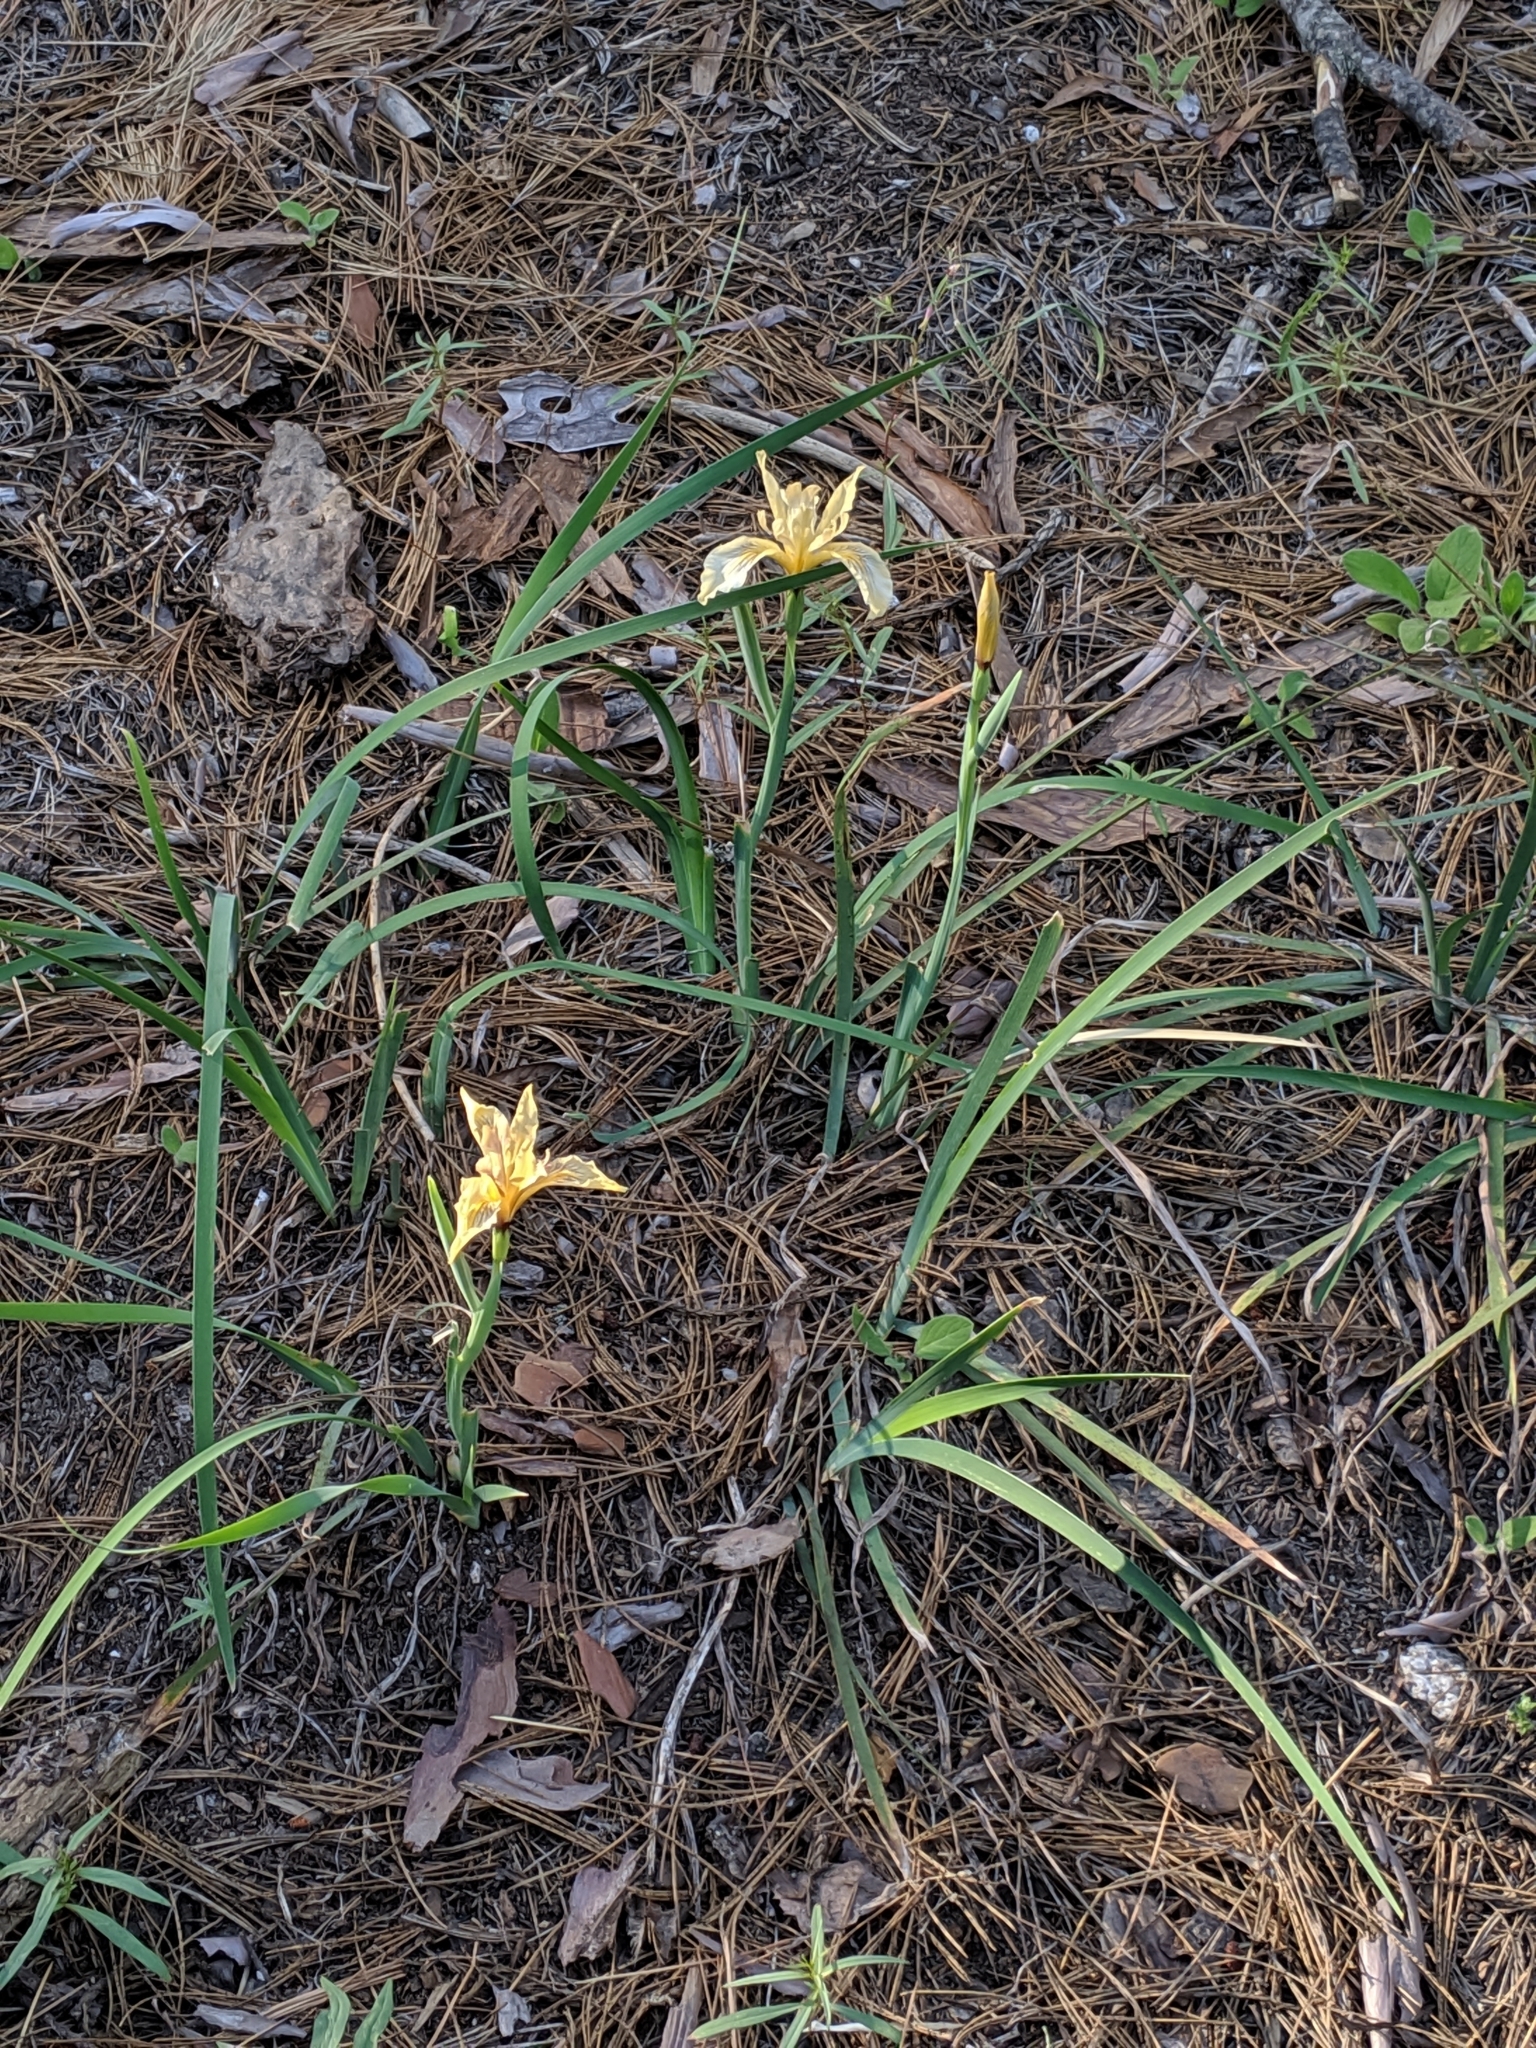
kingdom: Plantae
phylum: Tracheophyta
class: Liliopsida
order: Asparagales
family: Iridaceae
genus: Iris
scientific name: Iris hartwegii
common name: Sierra iris
